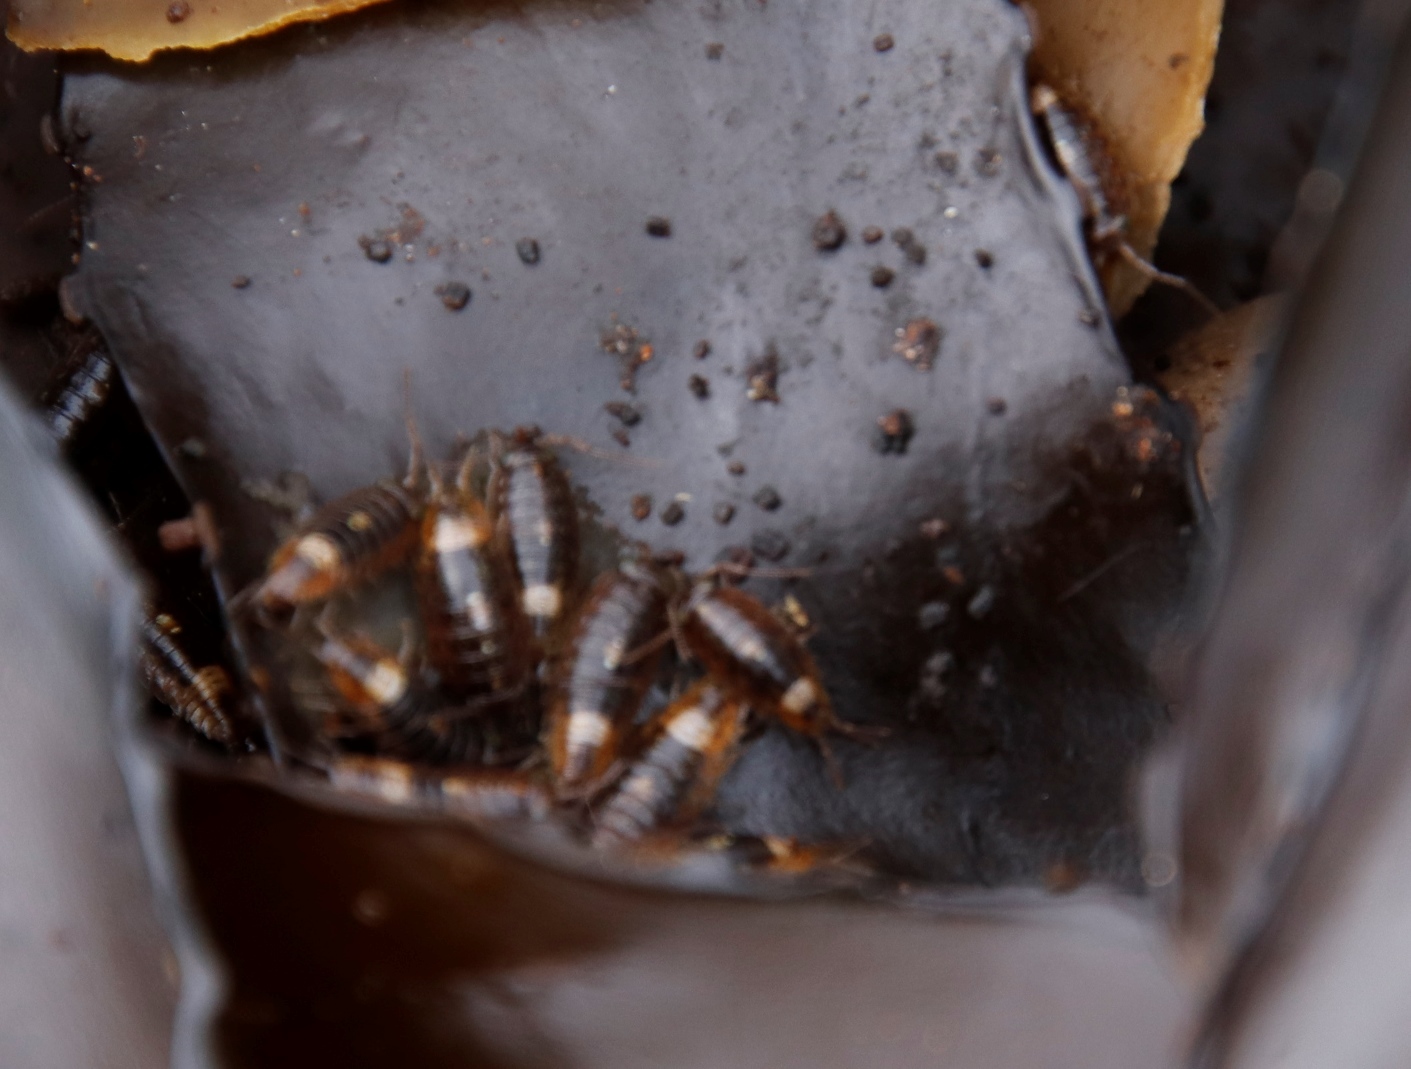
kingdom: Animalia
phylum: Arthropoda
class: Malacostraca
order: Isopoda
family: Ligiidae
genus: Ligia
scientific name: Ligia glabrata
